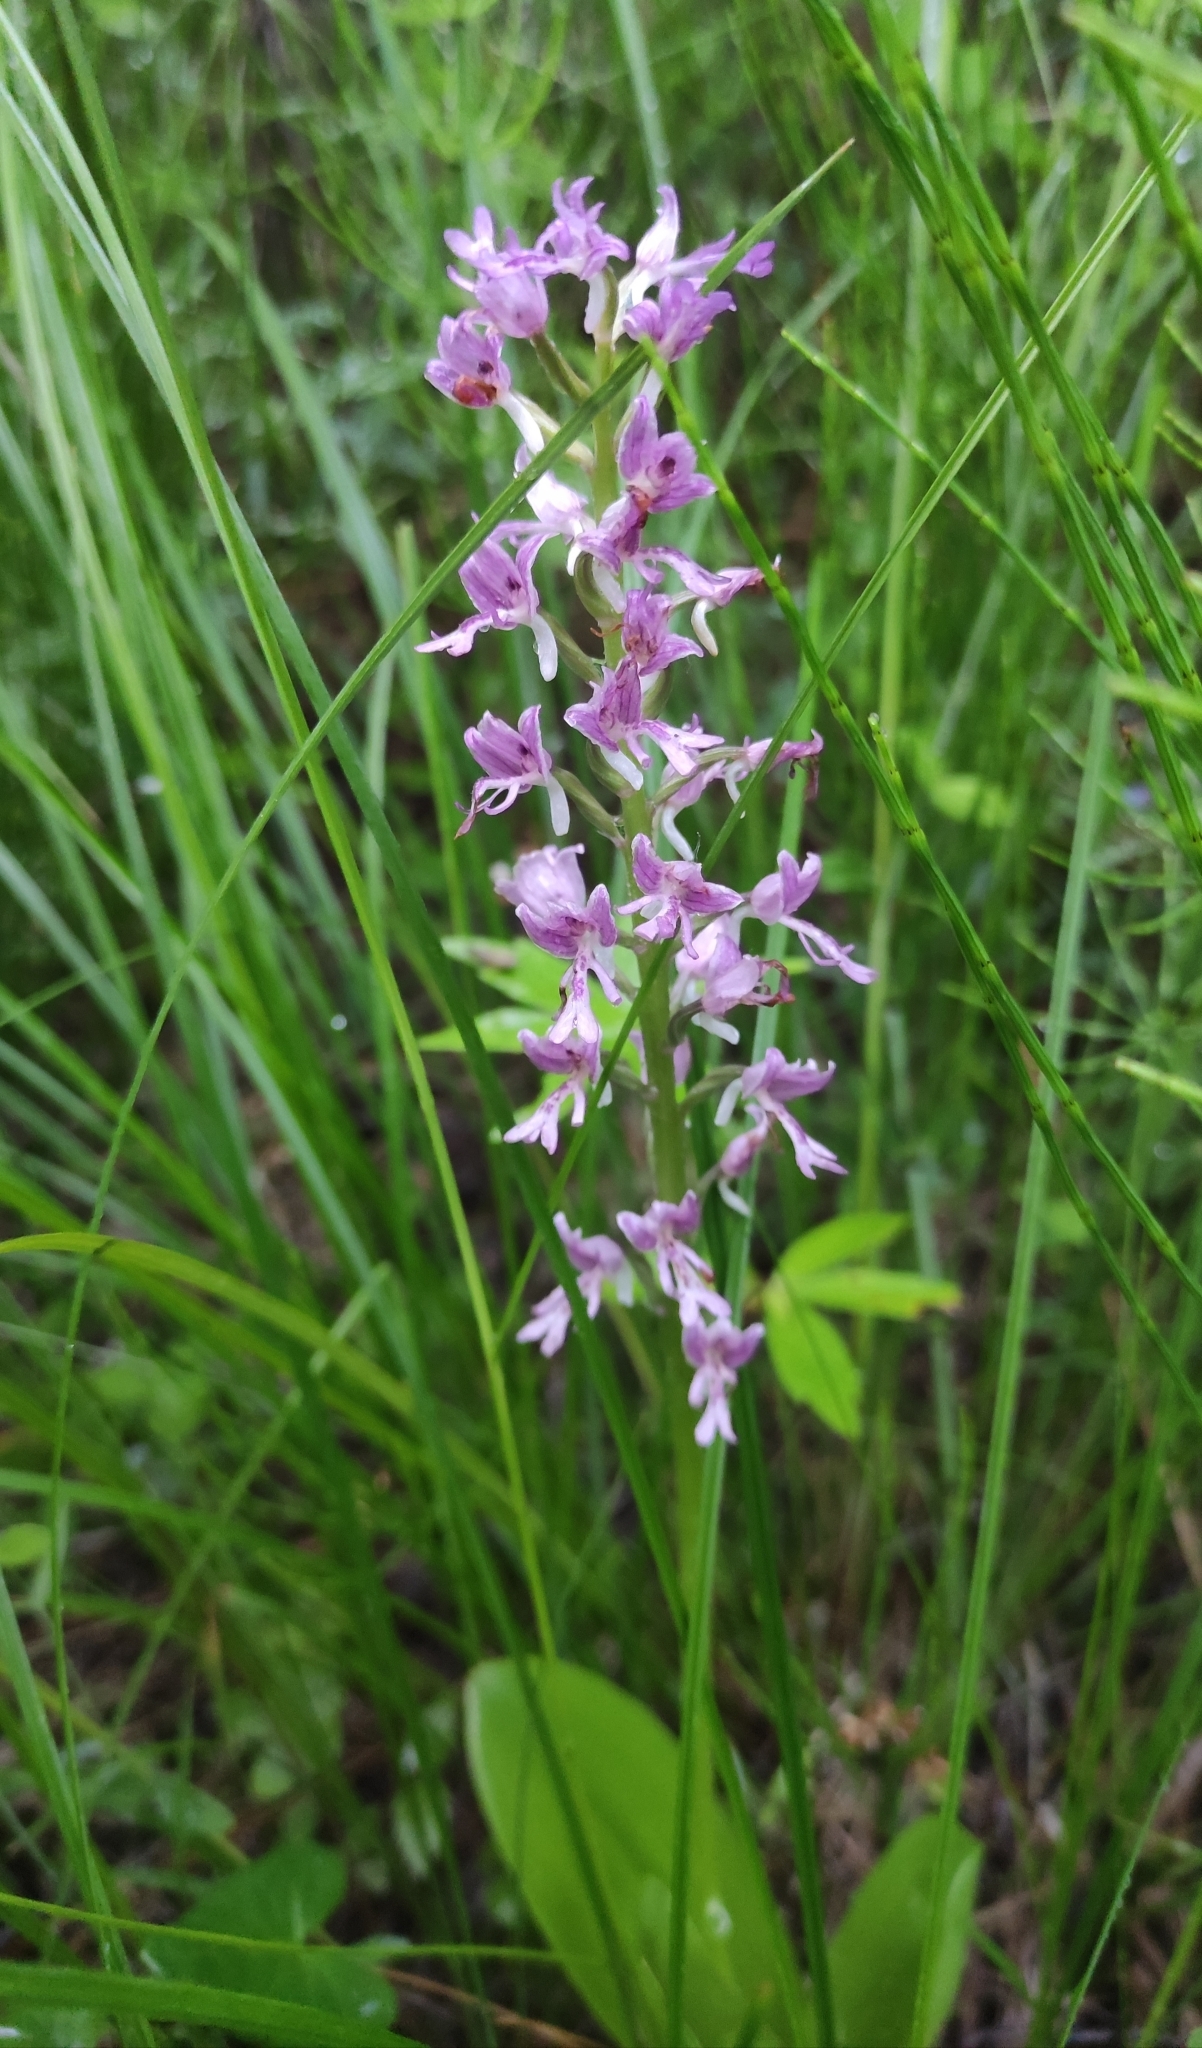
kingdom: Plantae
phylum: Tracheophyta
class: Liliopsida
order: Asparagales
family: Orchidaceae
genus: Orchis
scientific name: Orchis militaris
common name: Military orchid
